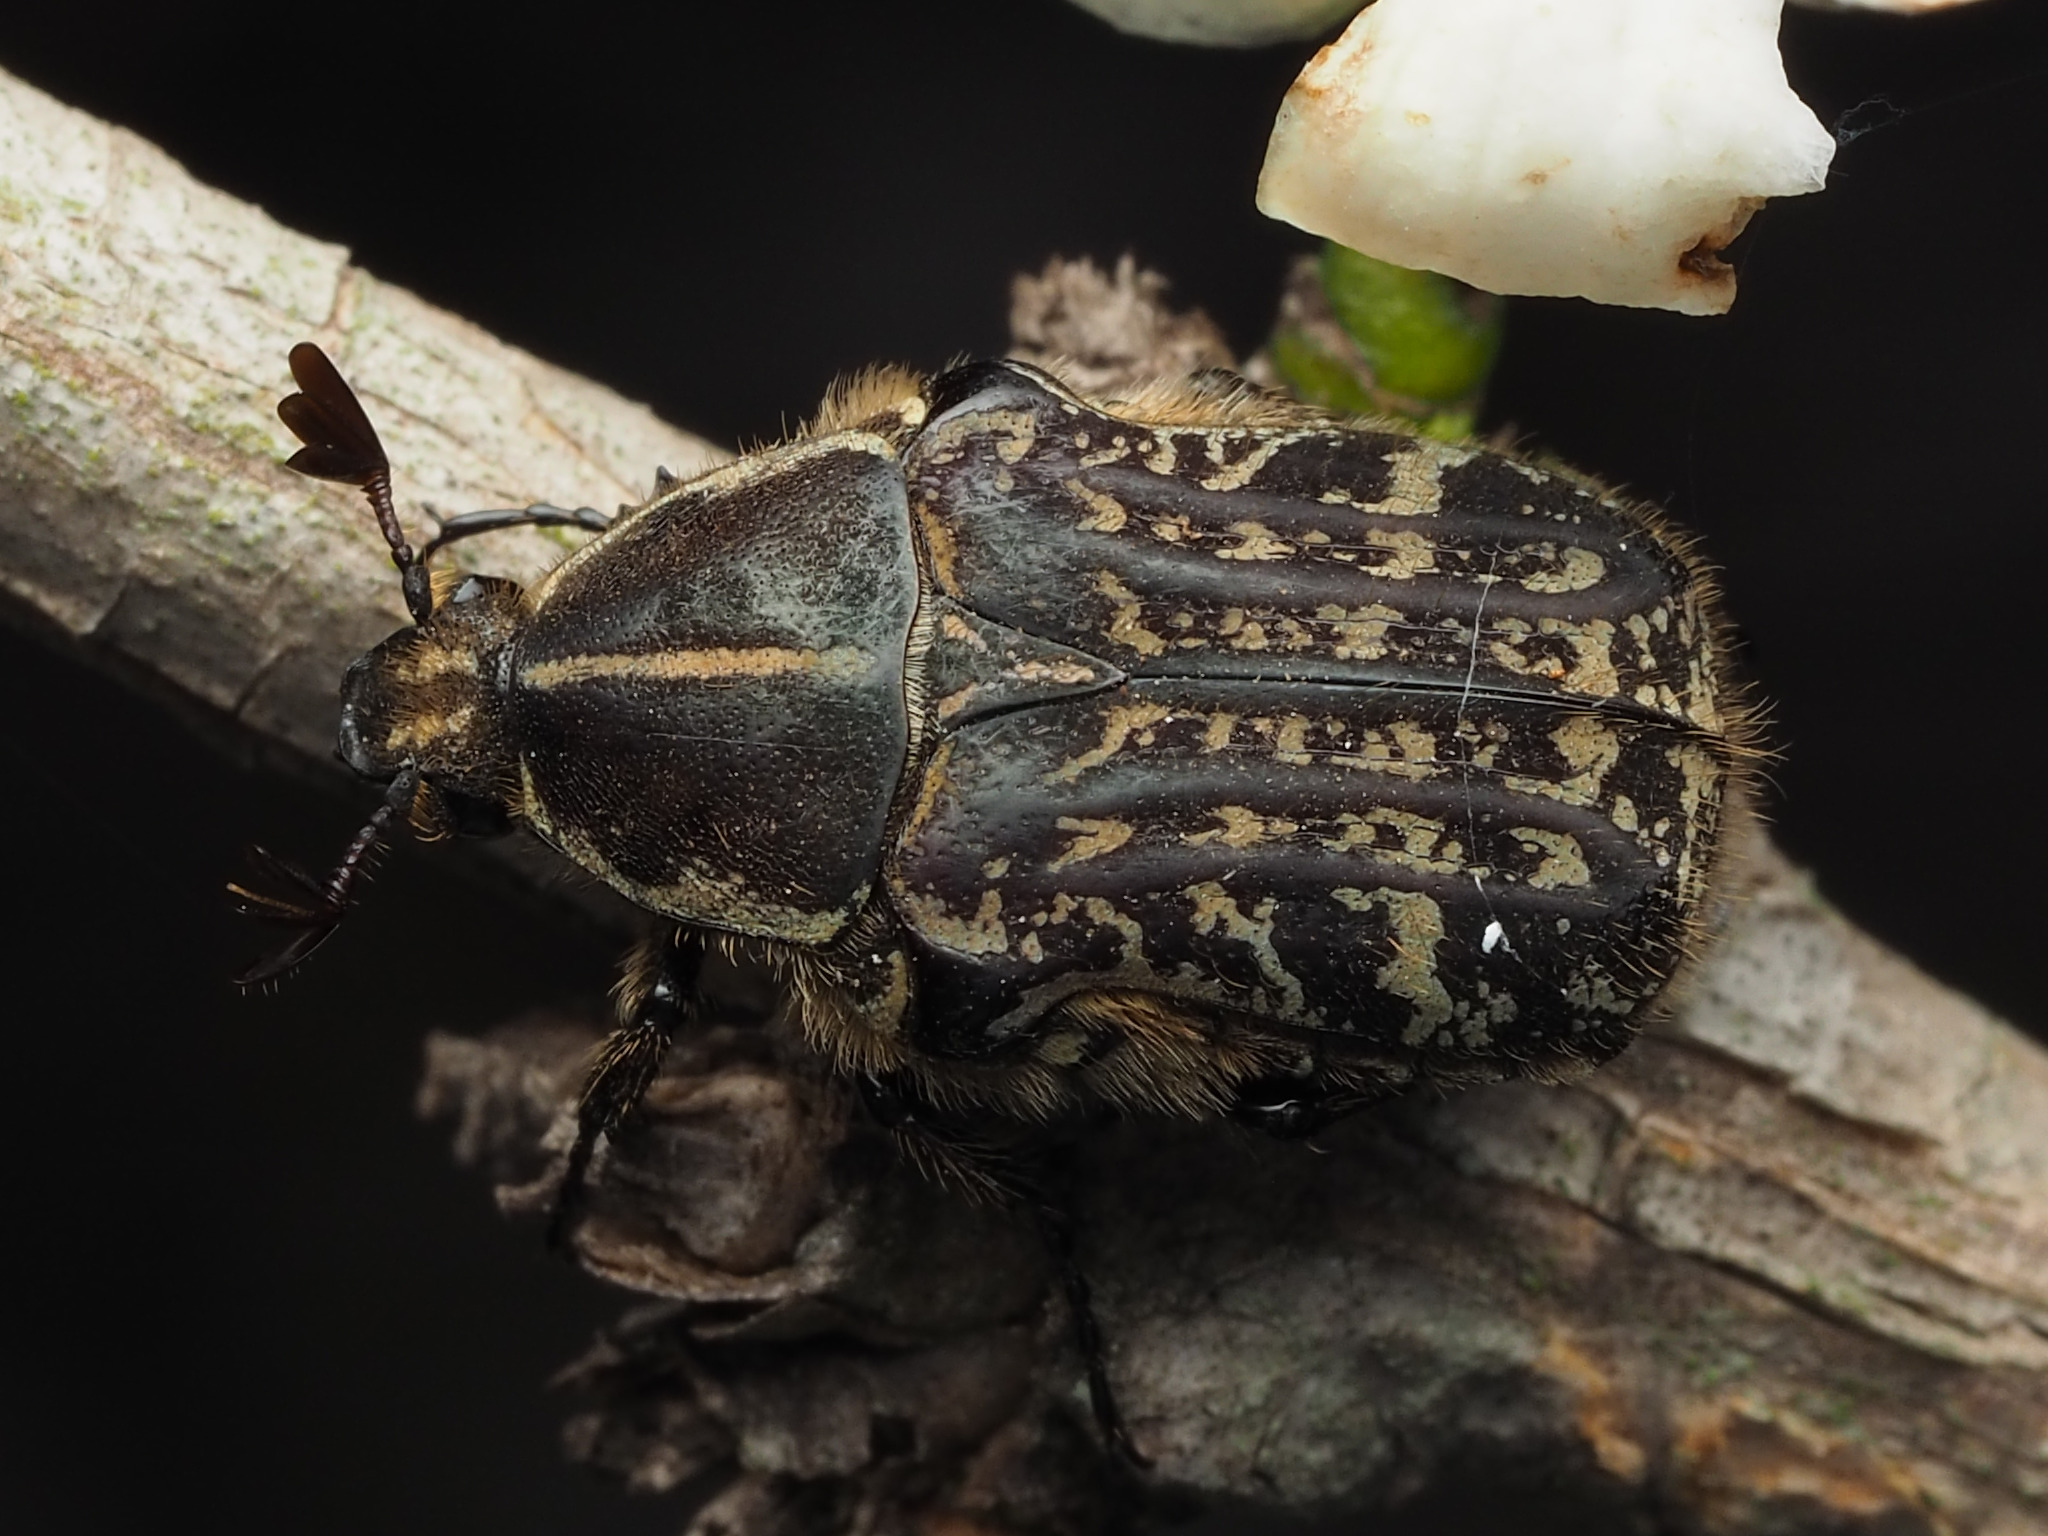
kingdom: Animalia
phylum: Arthropoda
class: Insecta
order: Coleoptera
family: Scarabaeidae
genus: Euphoria
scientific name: Euphoria leprosa
